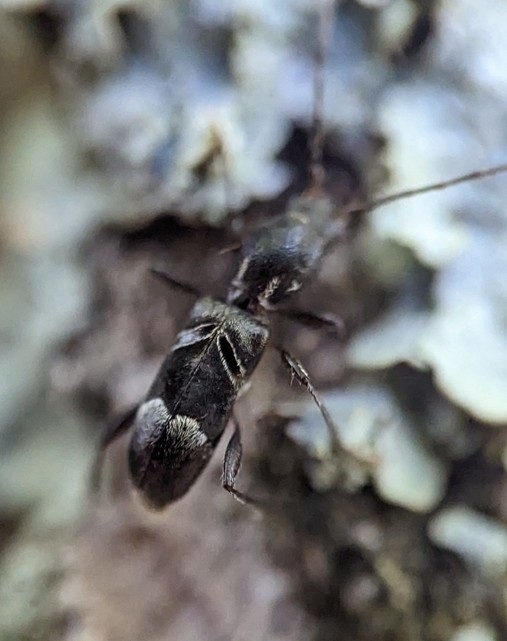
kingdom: Animalia
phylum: Arthropoda
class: Insecta
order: Coleoptera
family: Cerambycidae
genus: Tilloclytus
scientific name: Tilloclytus geminatus
